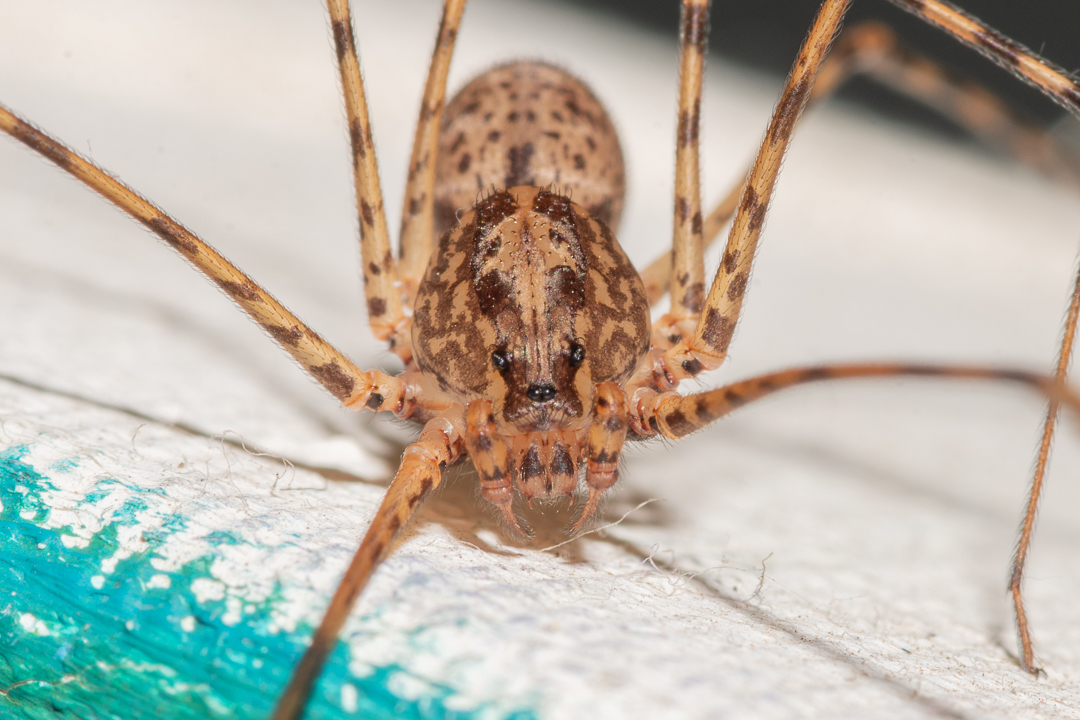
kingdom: Animalia
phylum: Arthropoda
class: Arachnida
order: Araneae
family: Scytodidae
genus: Scytodes
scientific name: Scytodes globula
